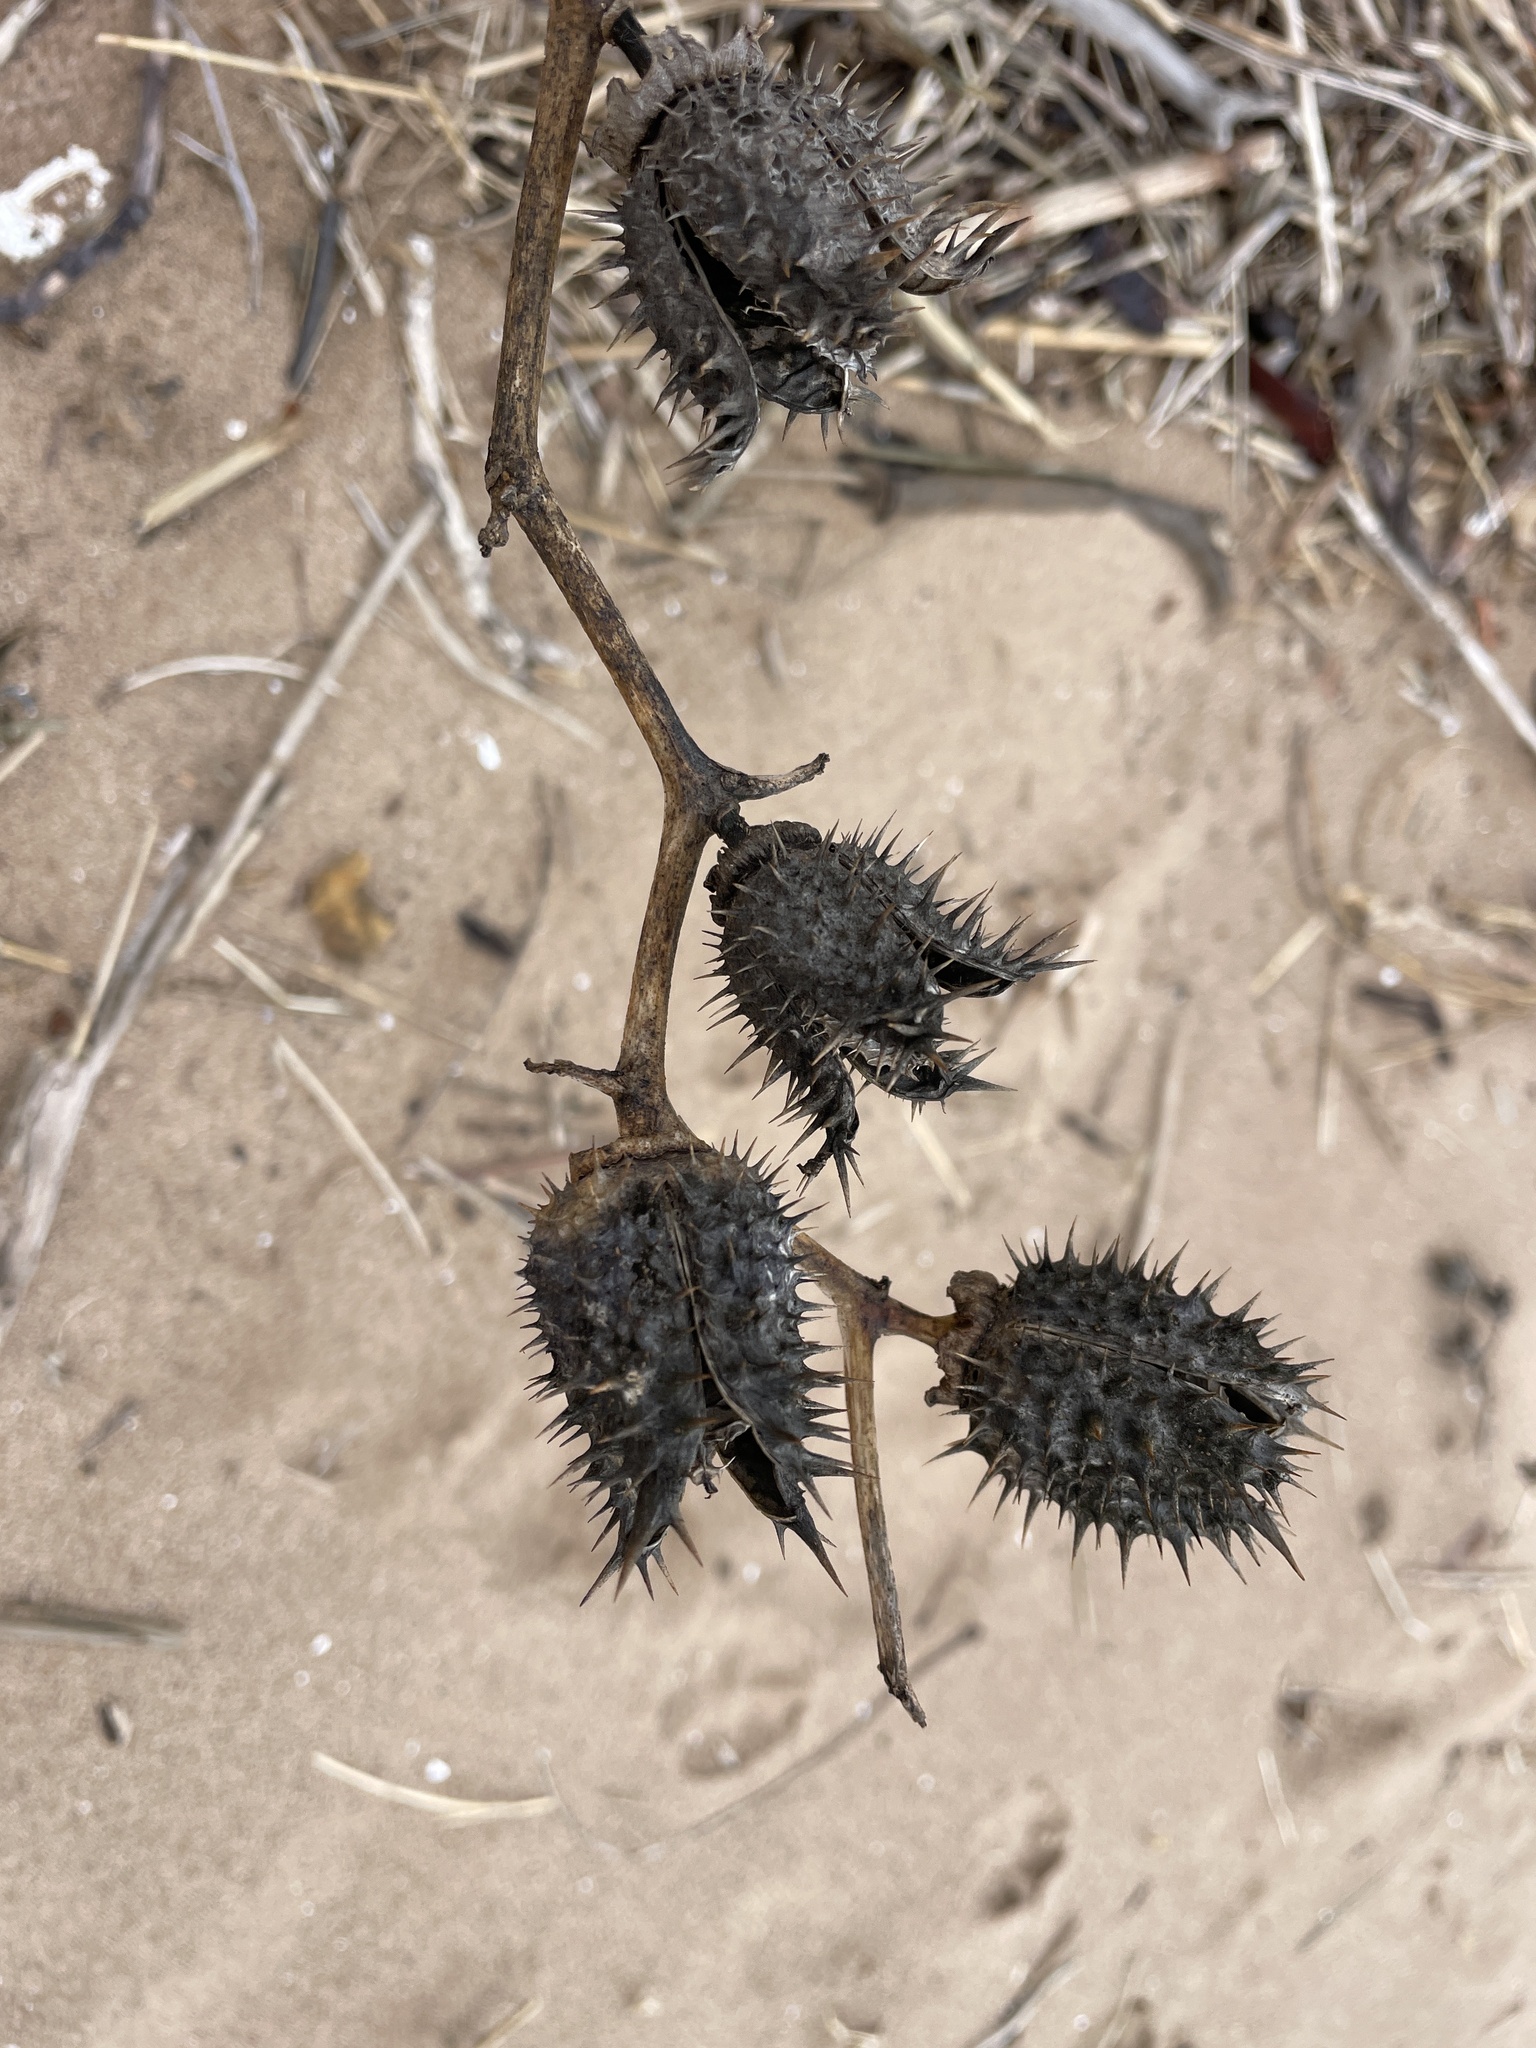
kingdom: Plantae
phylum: Tracheophyta
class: Magnoliopsida
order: Solanales
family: Solanaceae
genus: Datura
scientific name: Datura stramonium
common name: Thorn-apple
